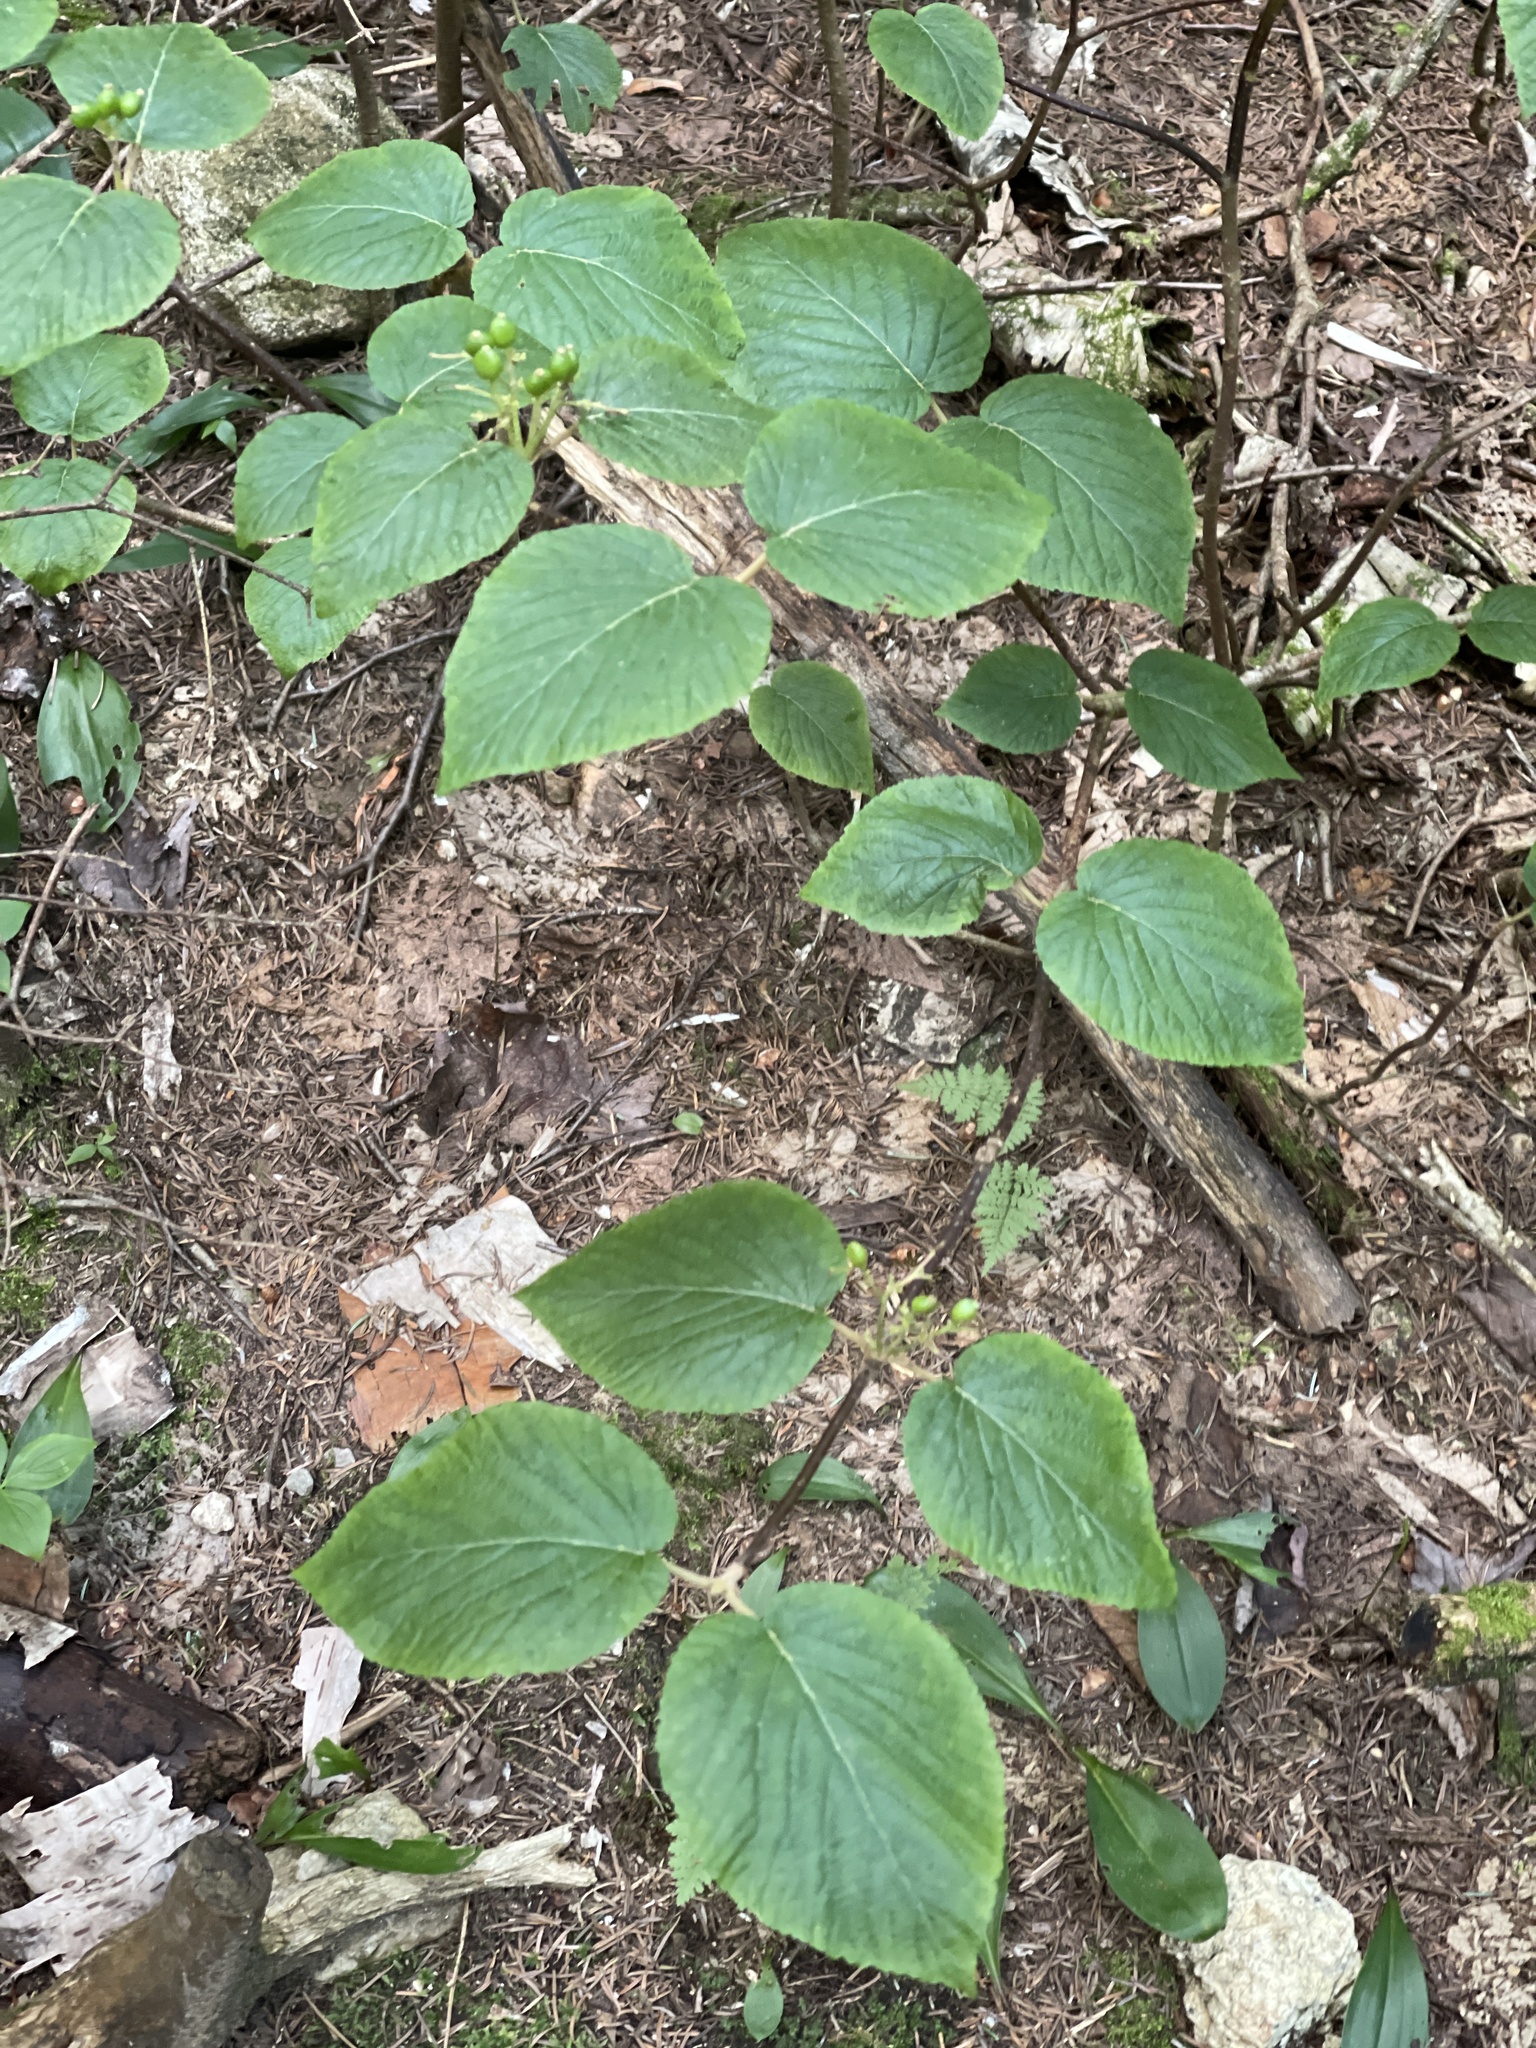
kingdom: Plantae
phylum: Tracheophyta
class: Magnoliopsida
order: Dipsacales
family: Viburnaceae
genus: Viburnum
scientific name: Viburnum lantanoides
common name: Hobblebush
